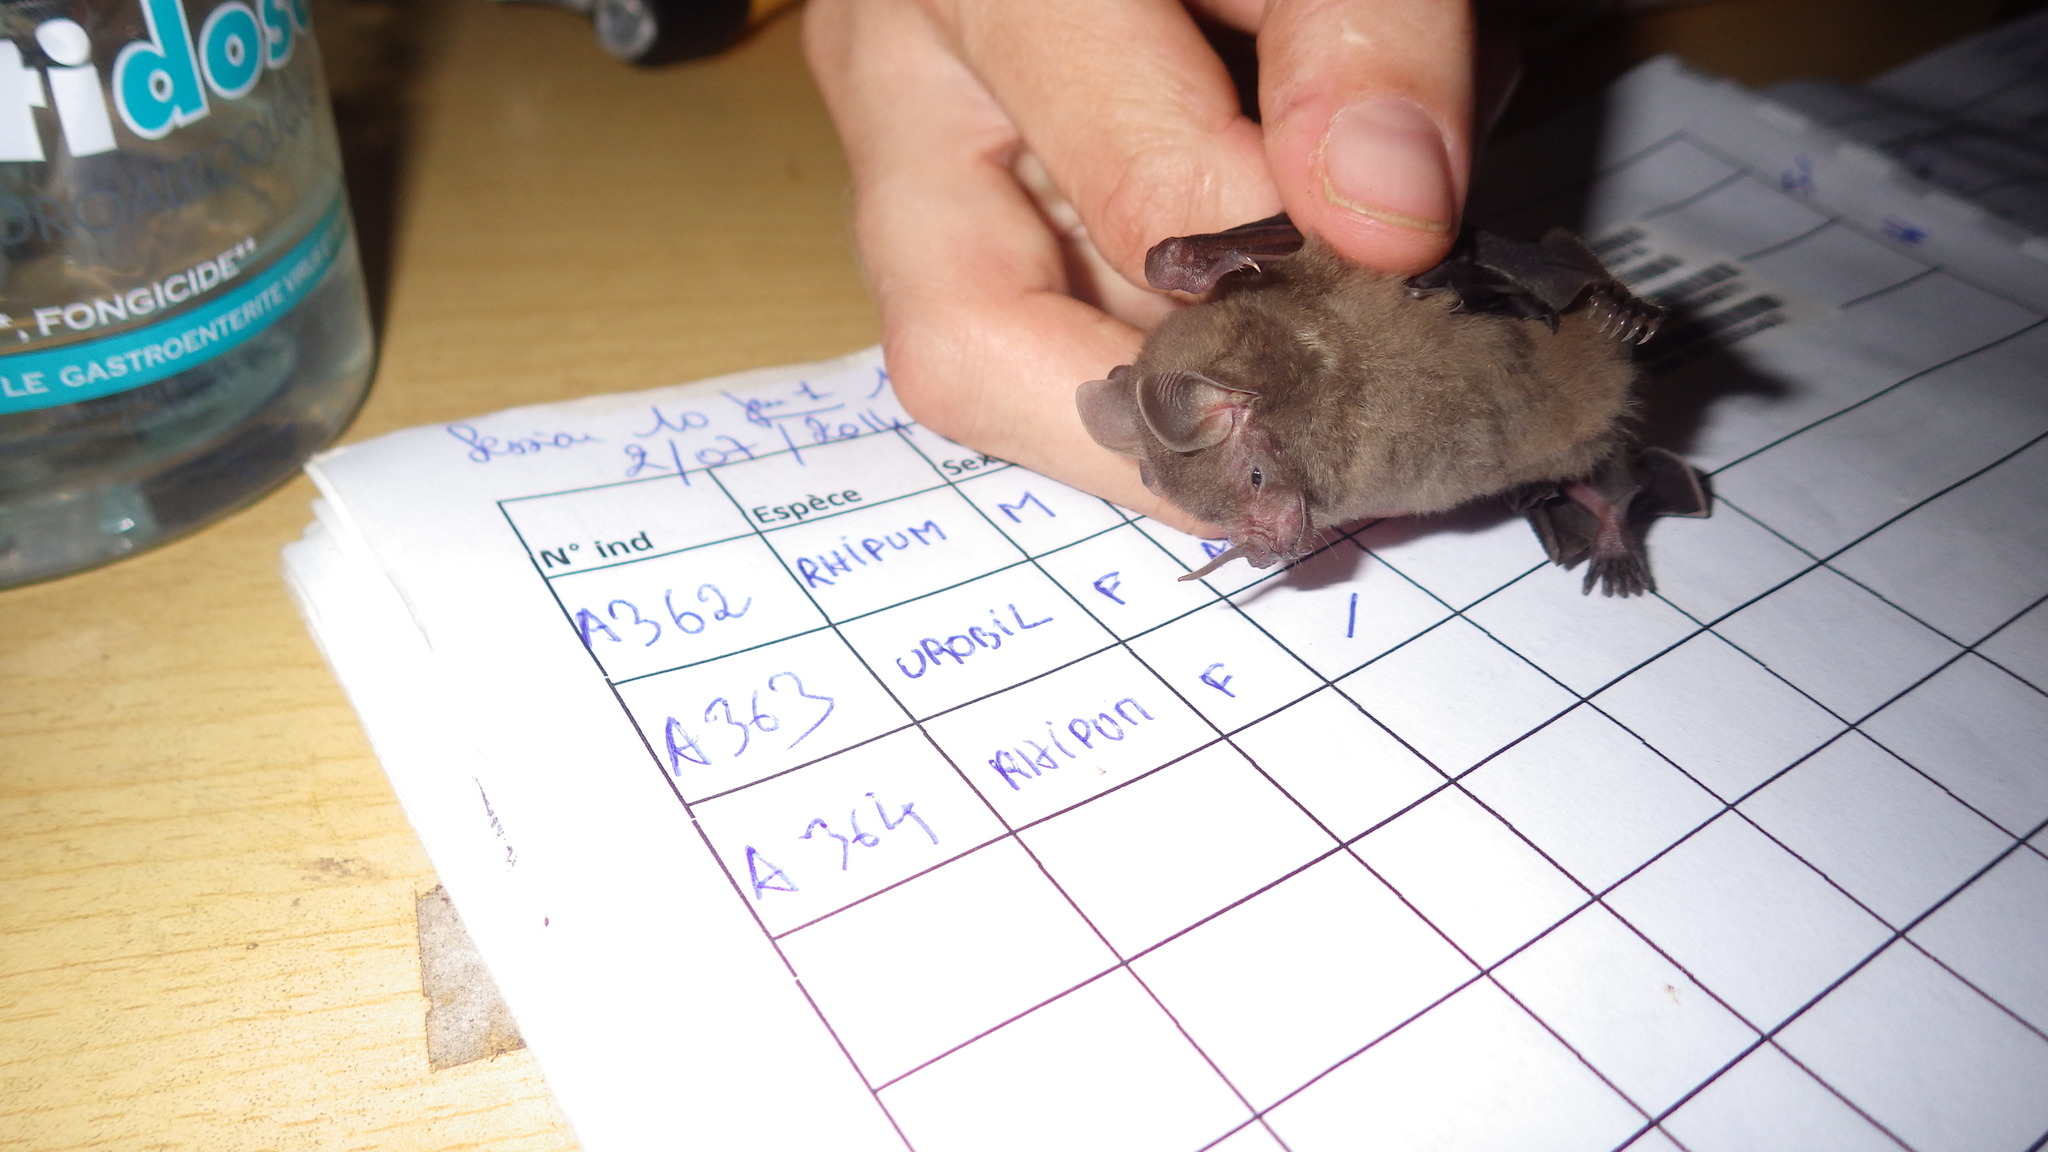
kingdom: Animalia
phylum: Chordata
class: Mammalia
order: Chiroptera
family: Phyllostomidae
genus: Rhinophylla
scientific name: Rhinophylla pumilio
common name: Dwarf little fruit bat
